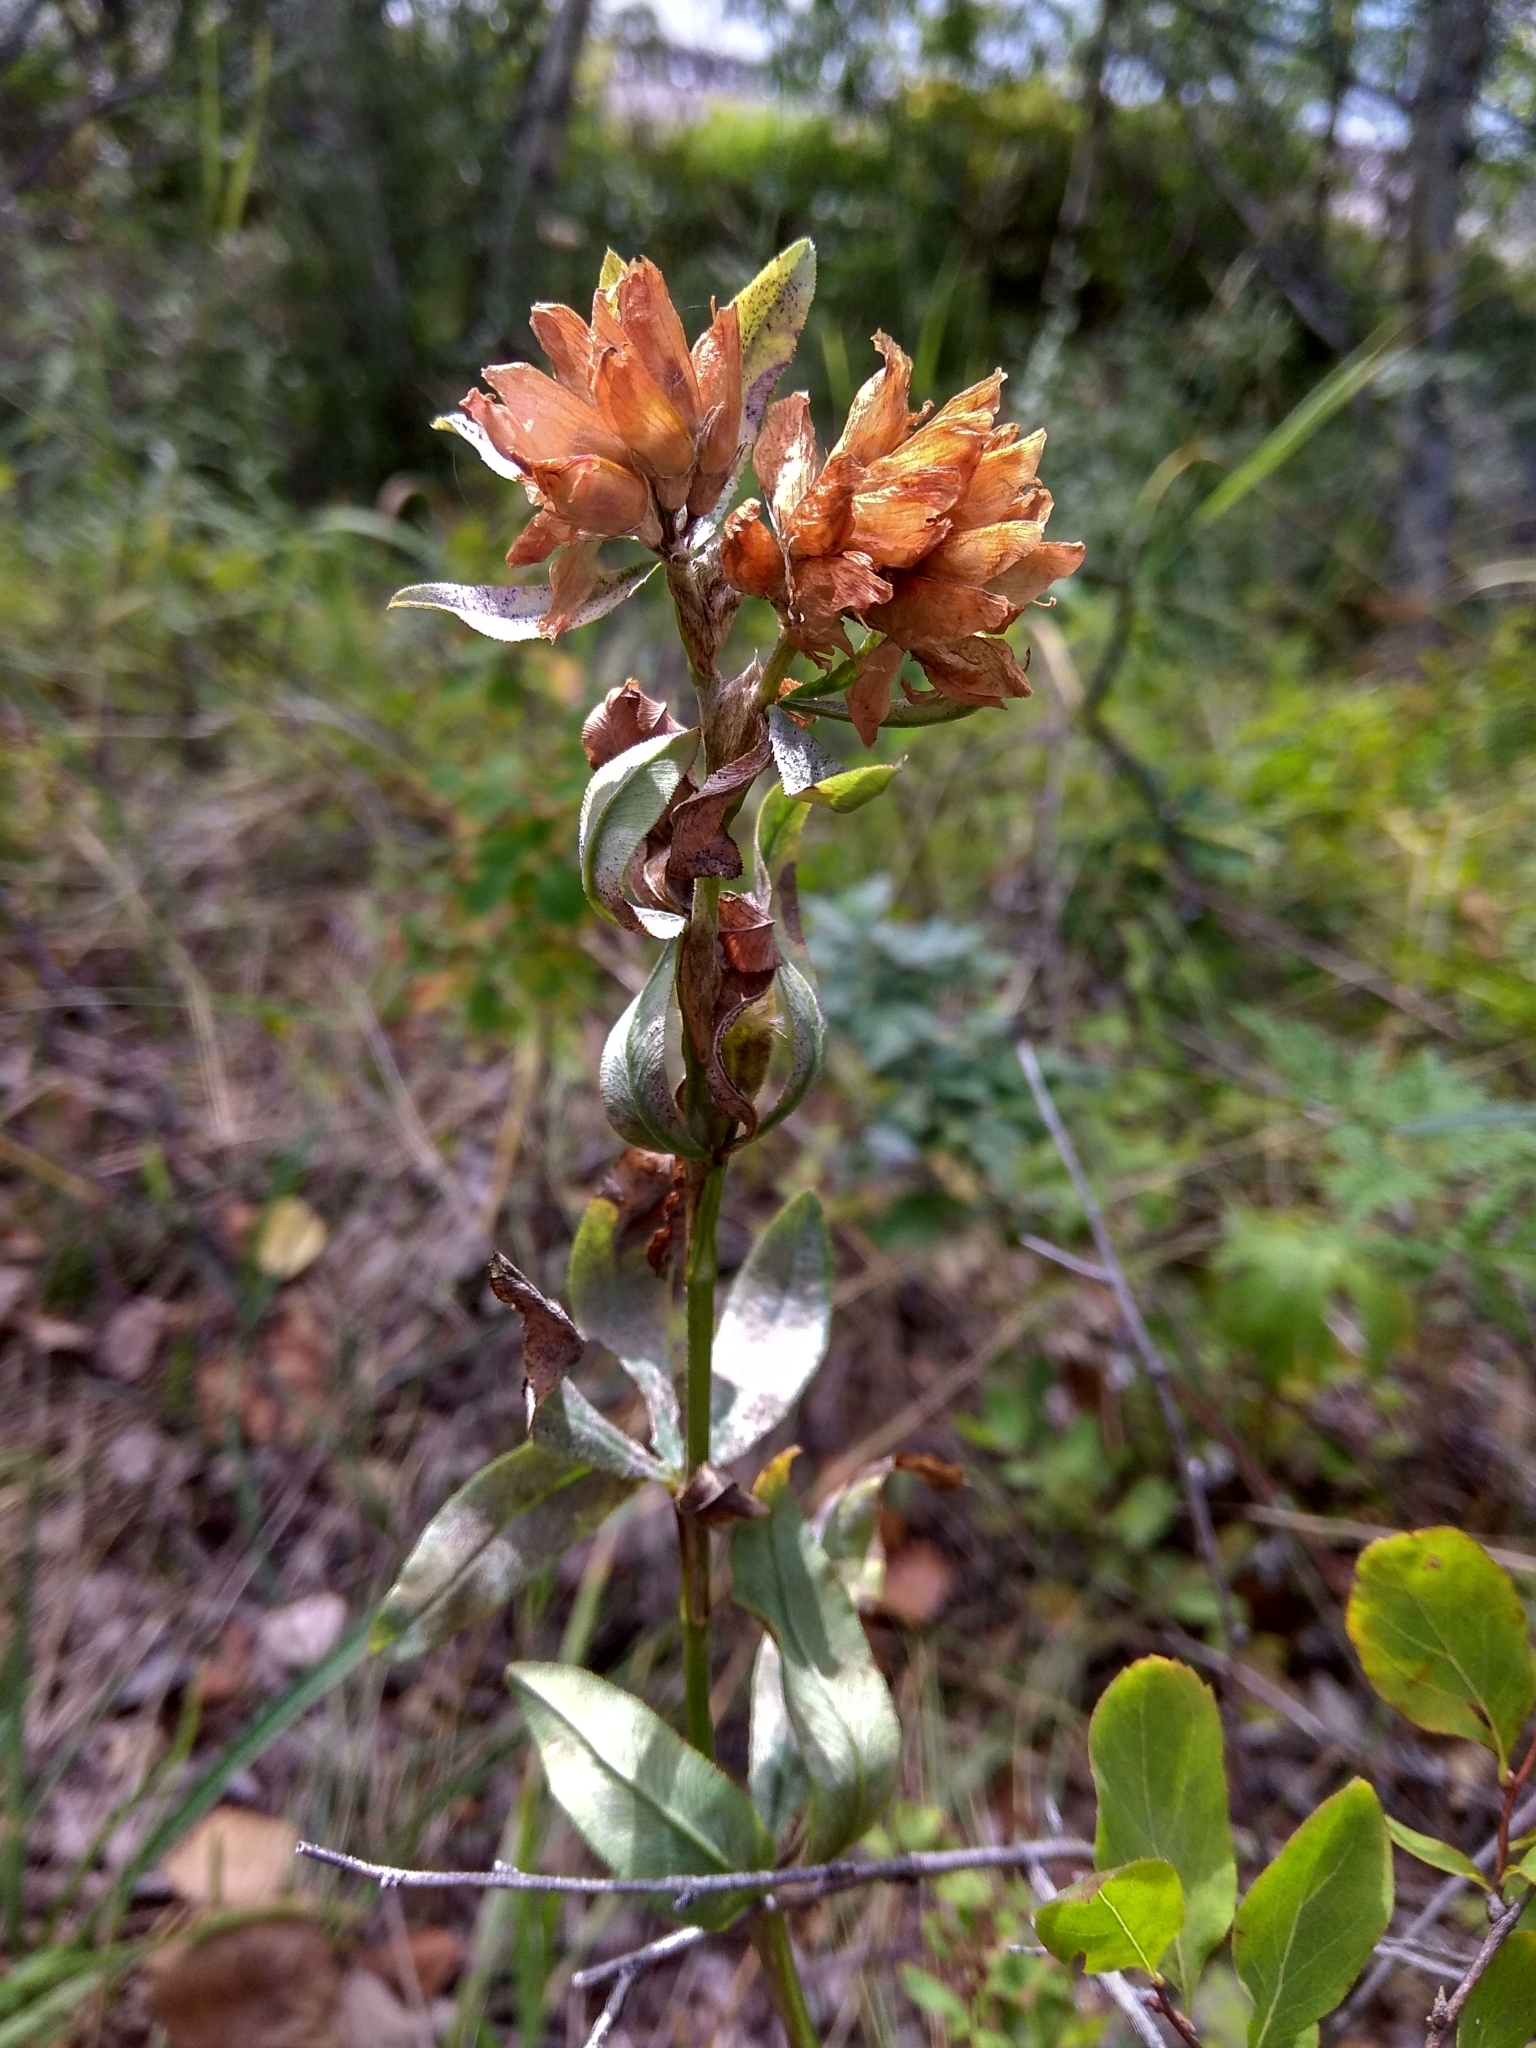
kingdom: Plantae
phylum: Tracheophyta
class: Magnoliopsida
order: Fabales
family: Fabaceae
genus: Trifolium
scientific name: Trifolium lupinaster
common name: Lupine clover
